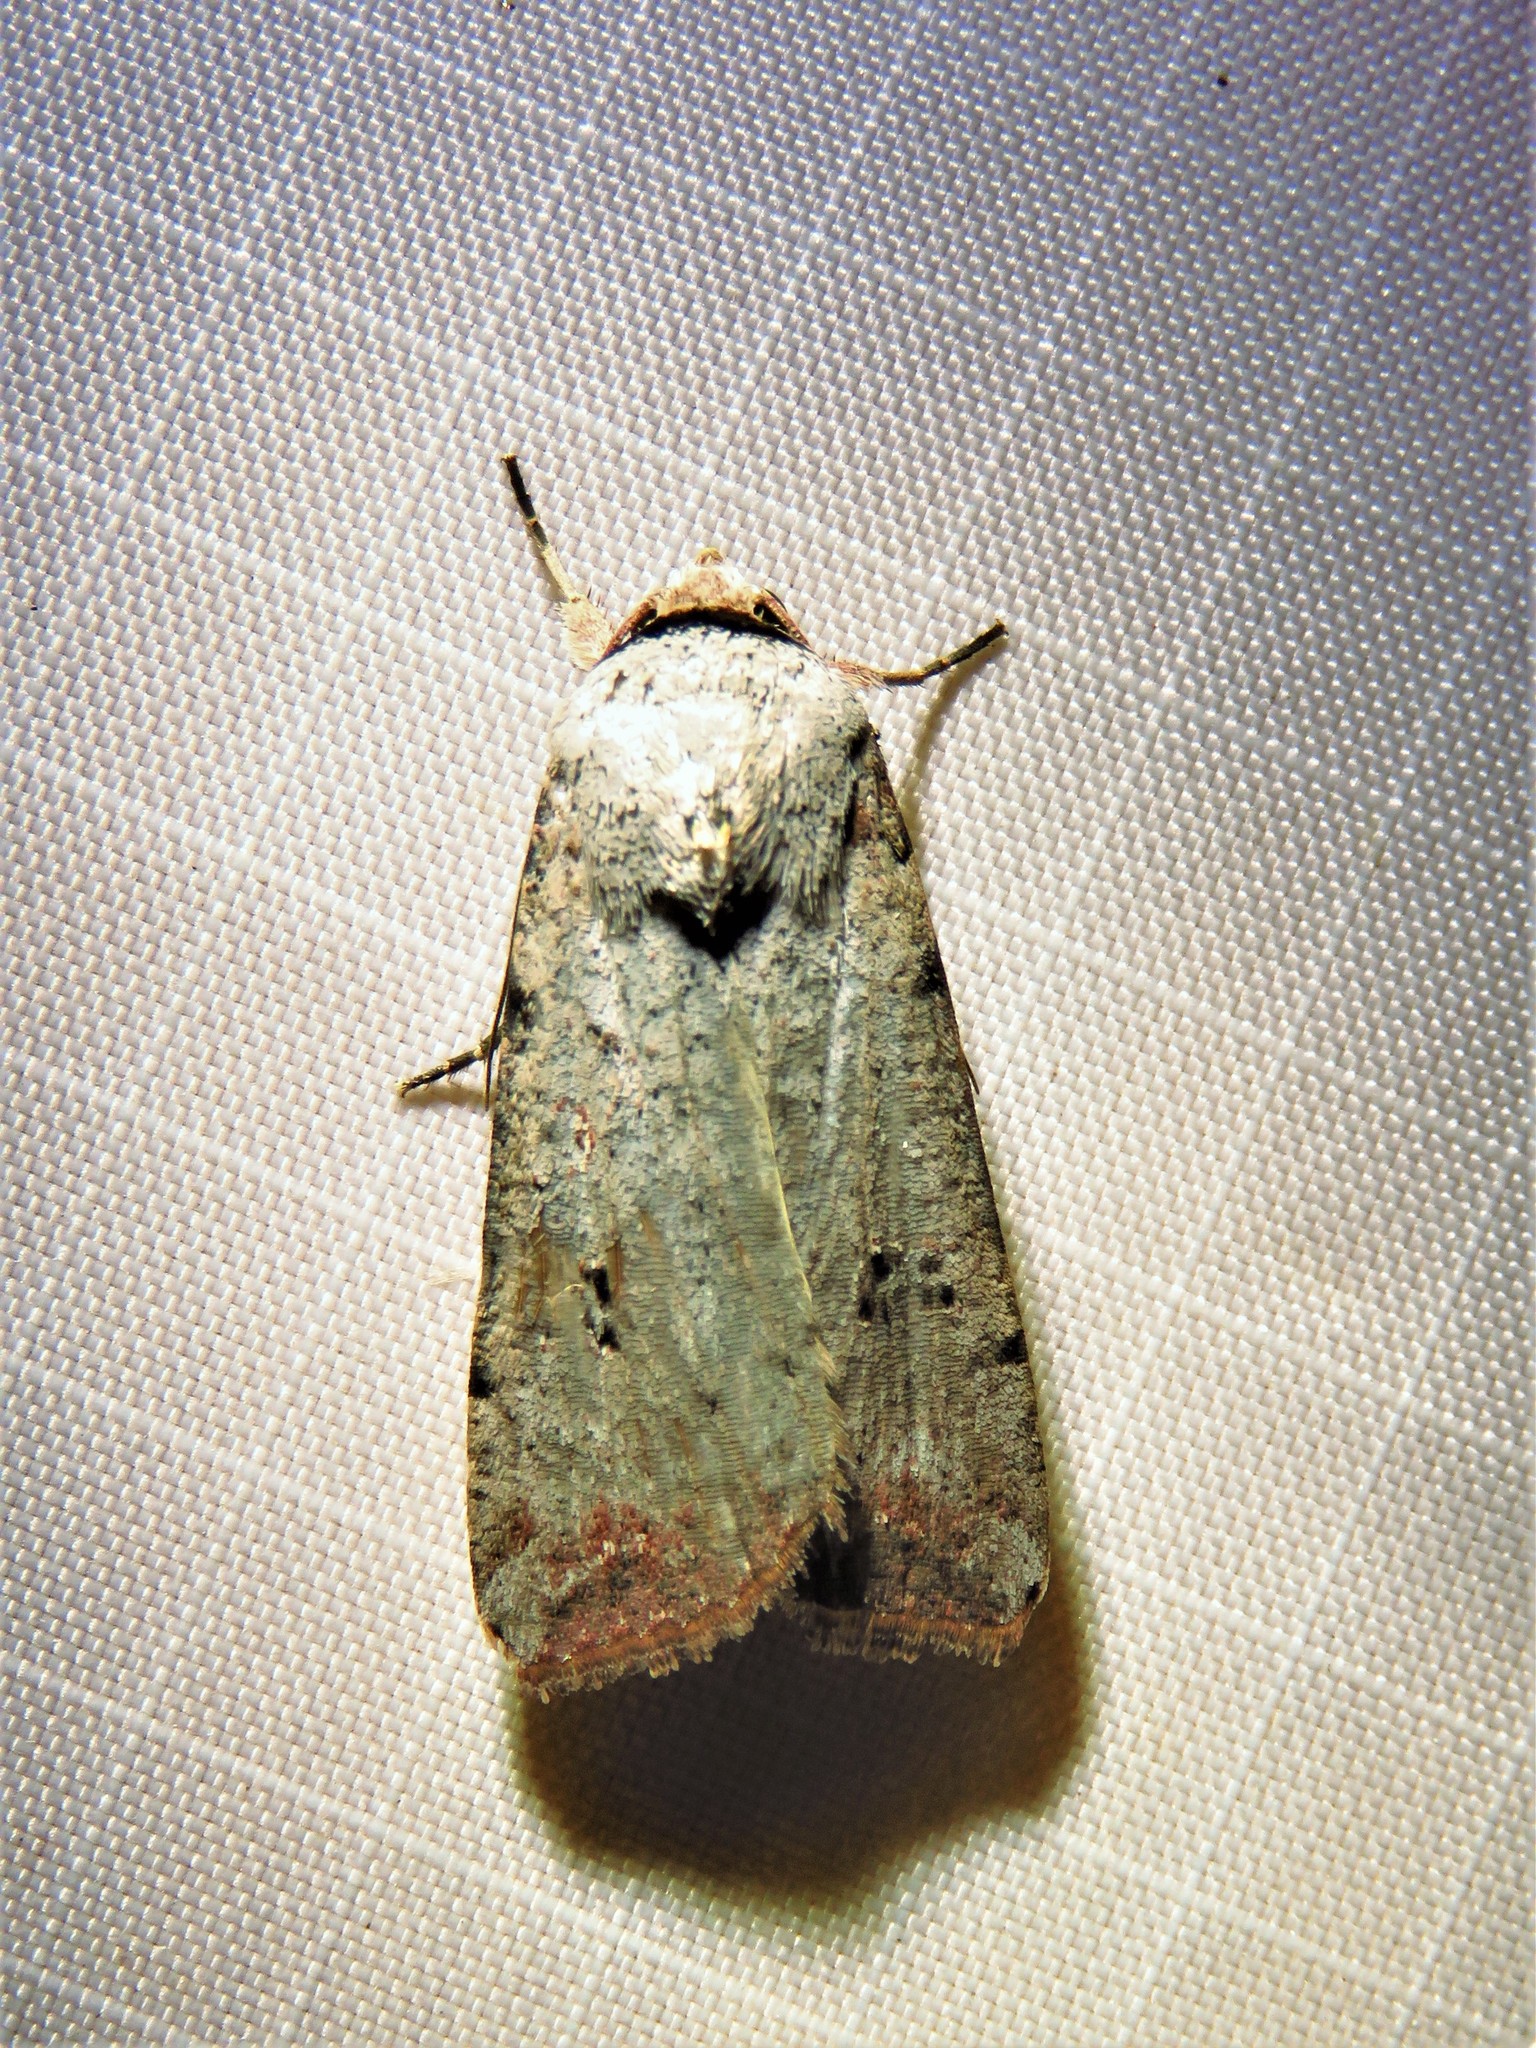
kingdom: Animalia
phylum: Arthropoda
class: Insecta
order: Lepidoptera
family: Noctuidae
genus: Anicla
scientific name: Anicla infecta
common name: Green cutworm
